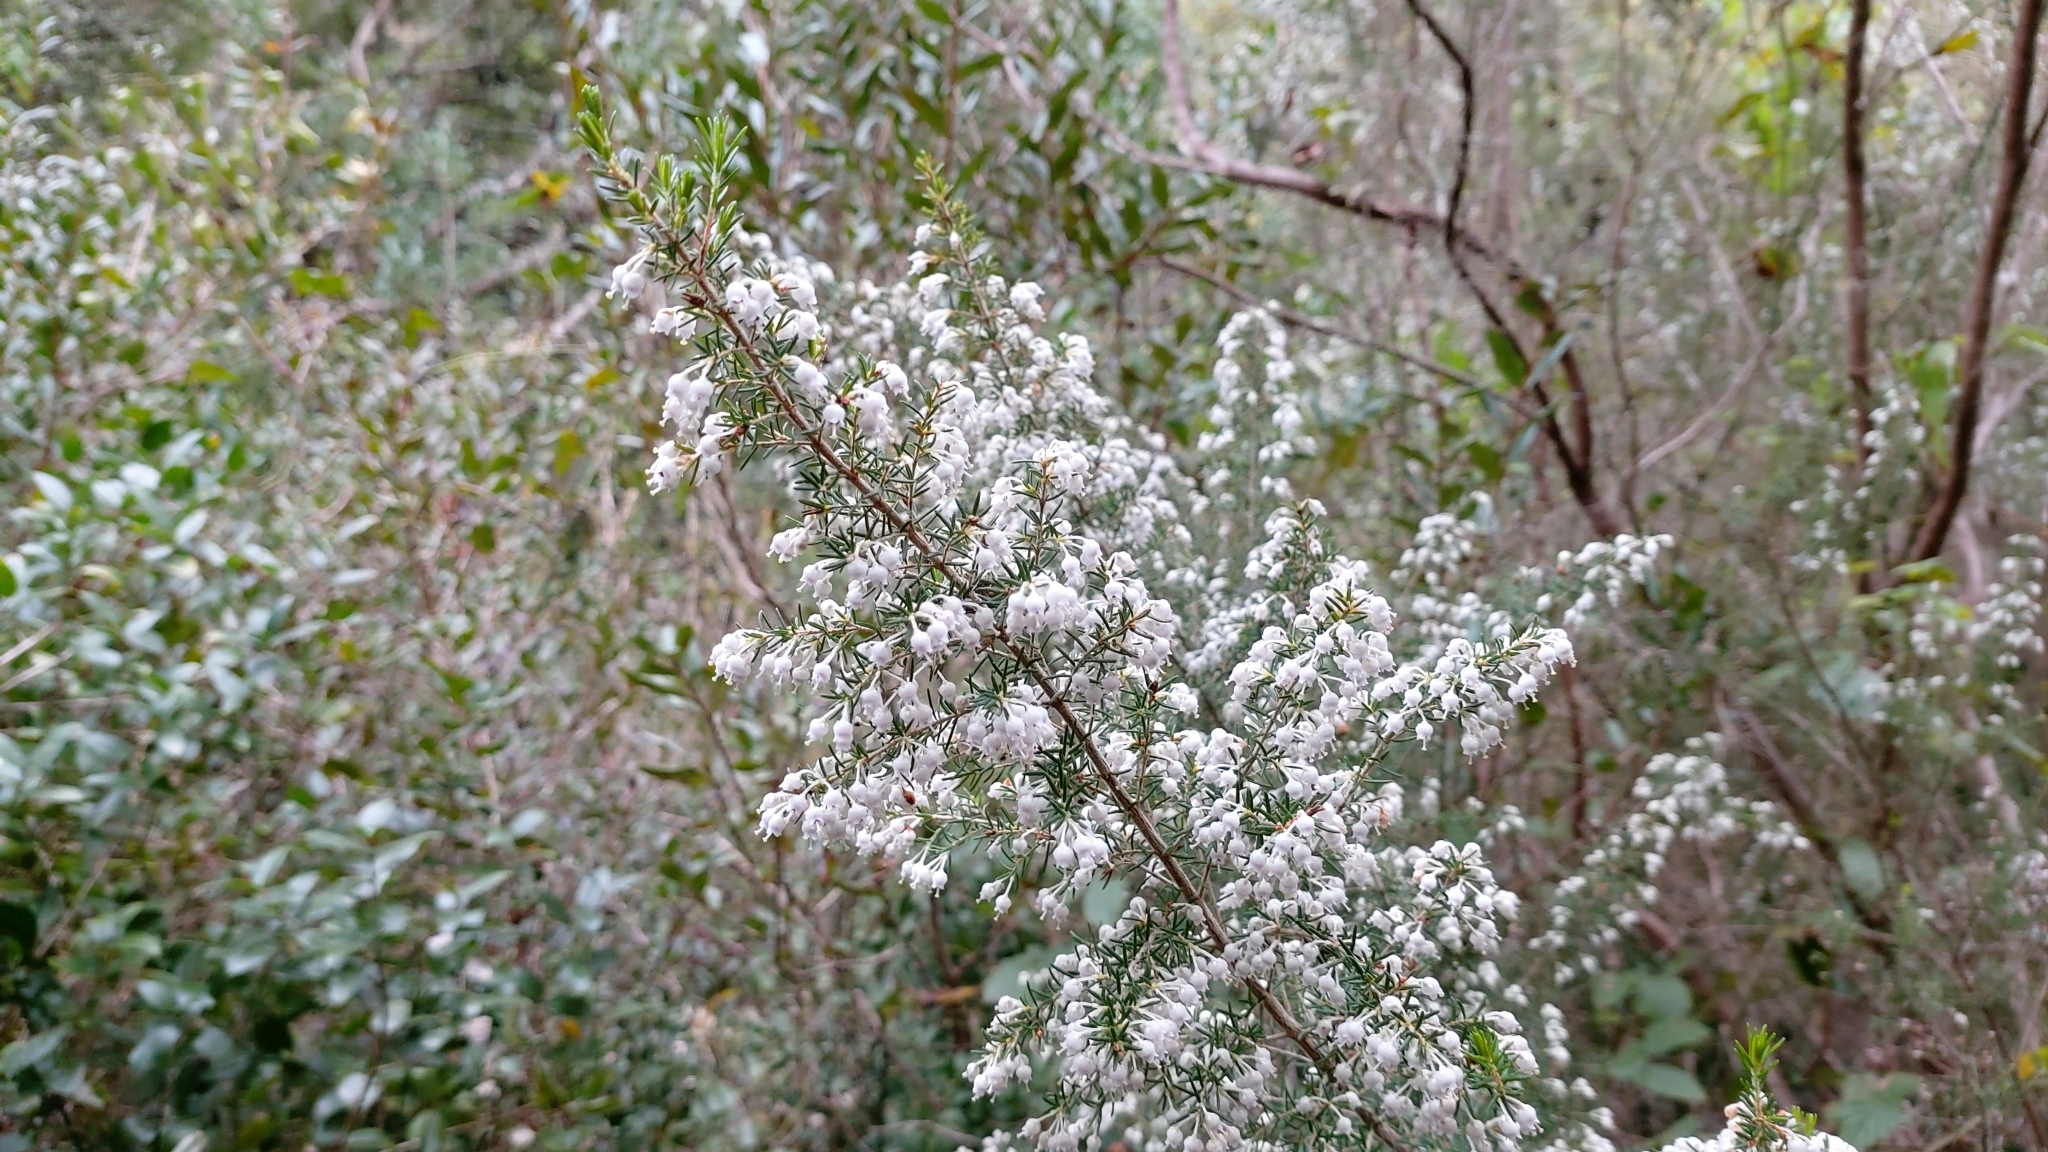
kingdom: Plantae
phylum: Tracheophyta
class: Magnoliopsida
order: Ericales
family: Ericaceae
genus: Erica
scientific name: Erica arborea
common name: Tree heath
